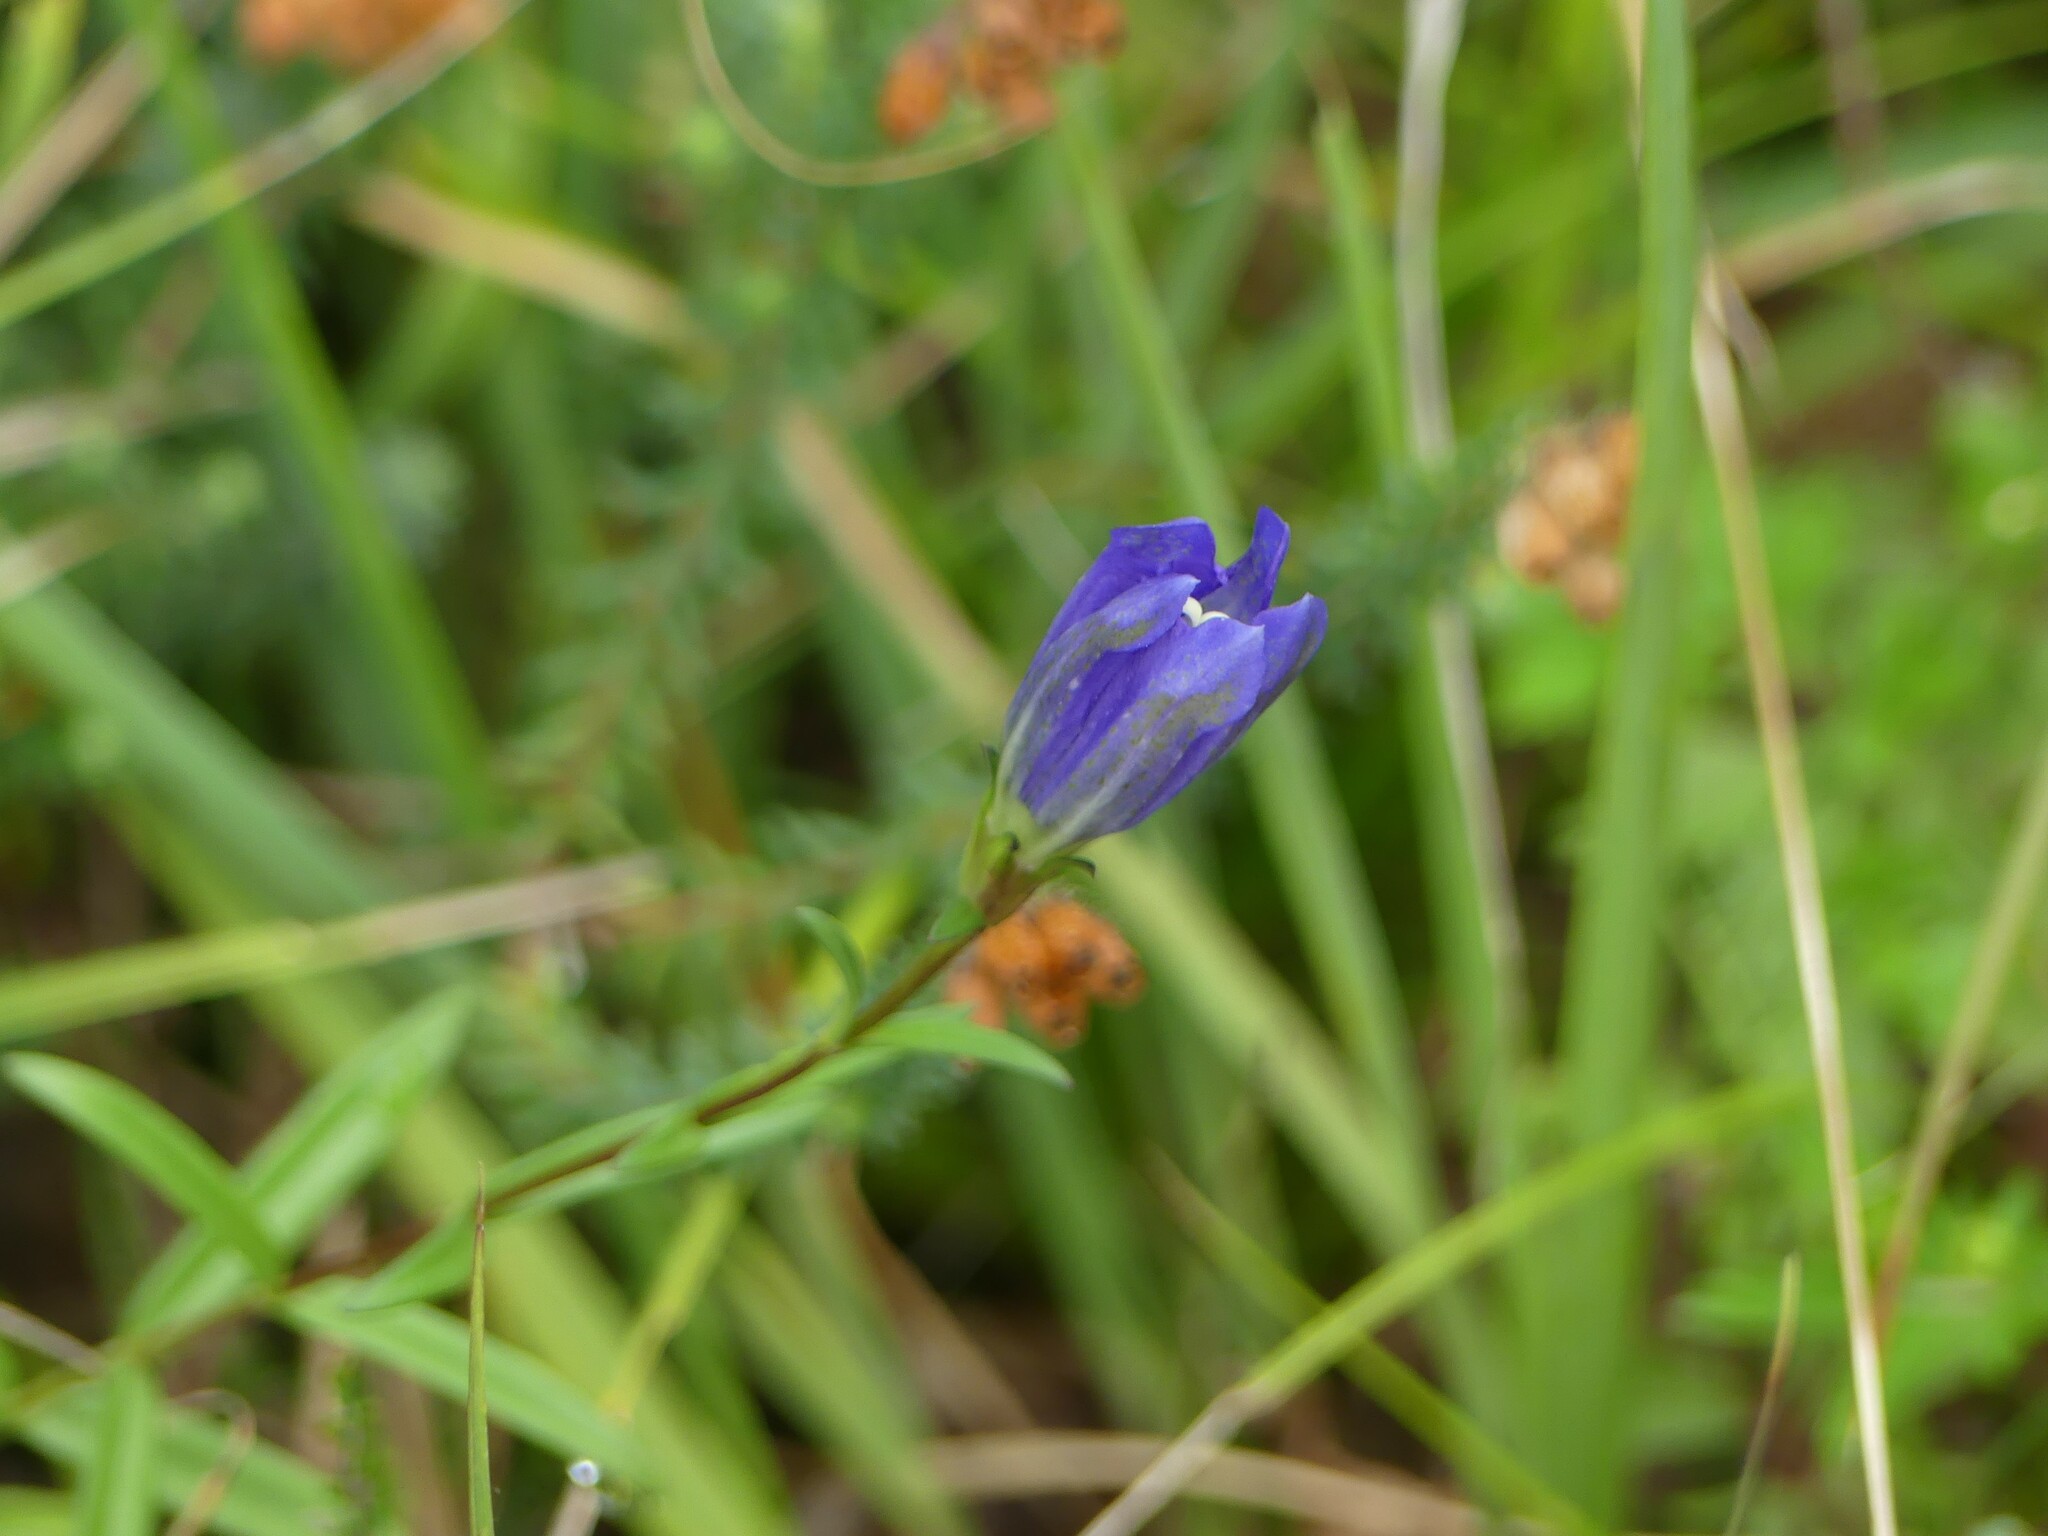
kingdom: Plantae
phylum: Tracheophyta
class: Magnoliopsida
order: Gentianales
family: Gentianaceae
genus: Gentiana
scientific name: Gentiana pneumonanthe
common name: Marsh gentian
